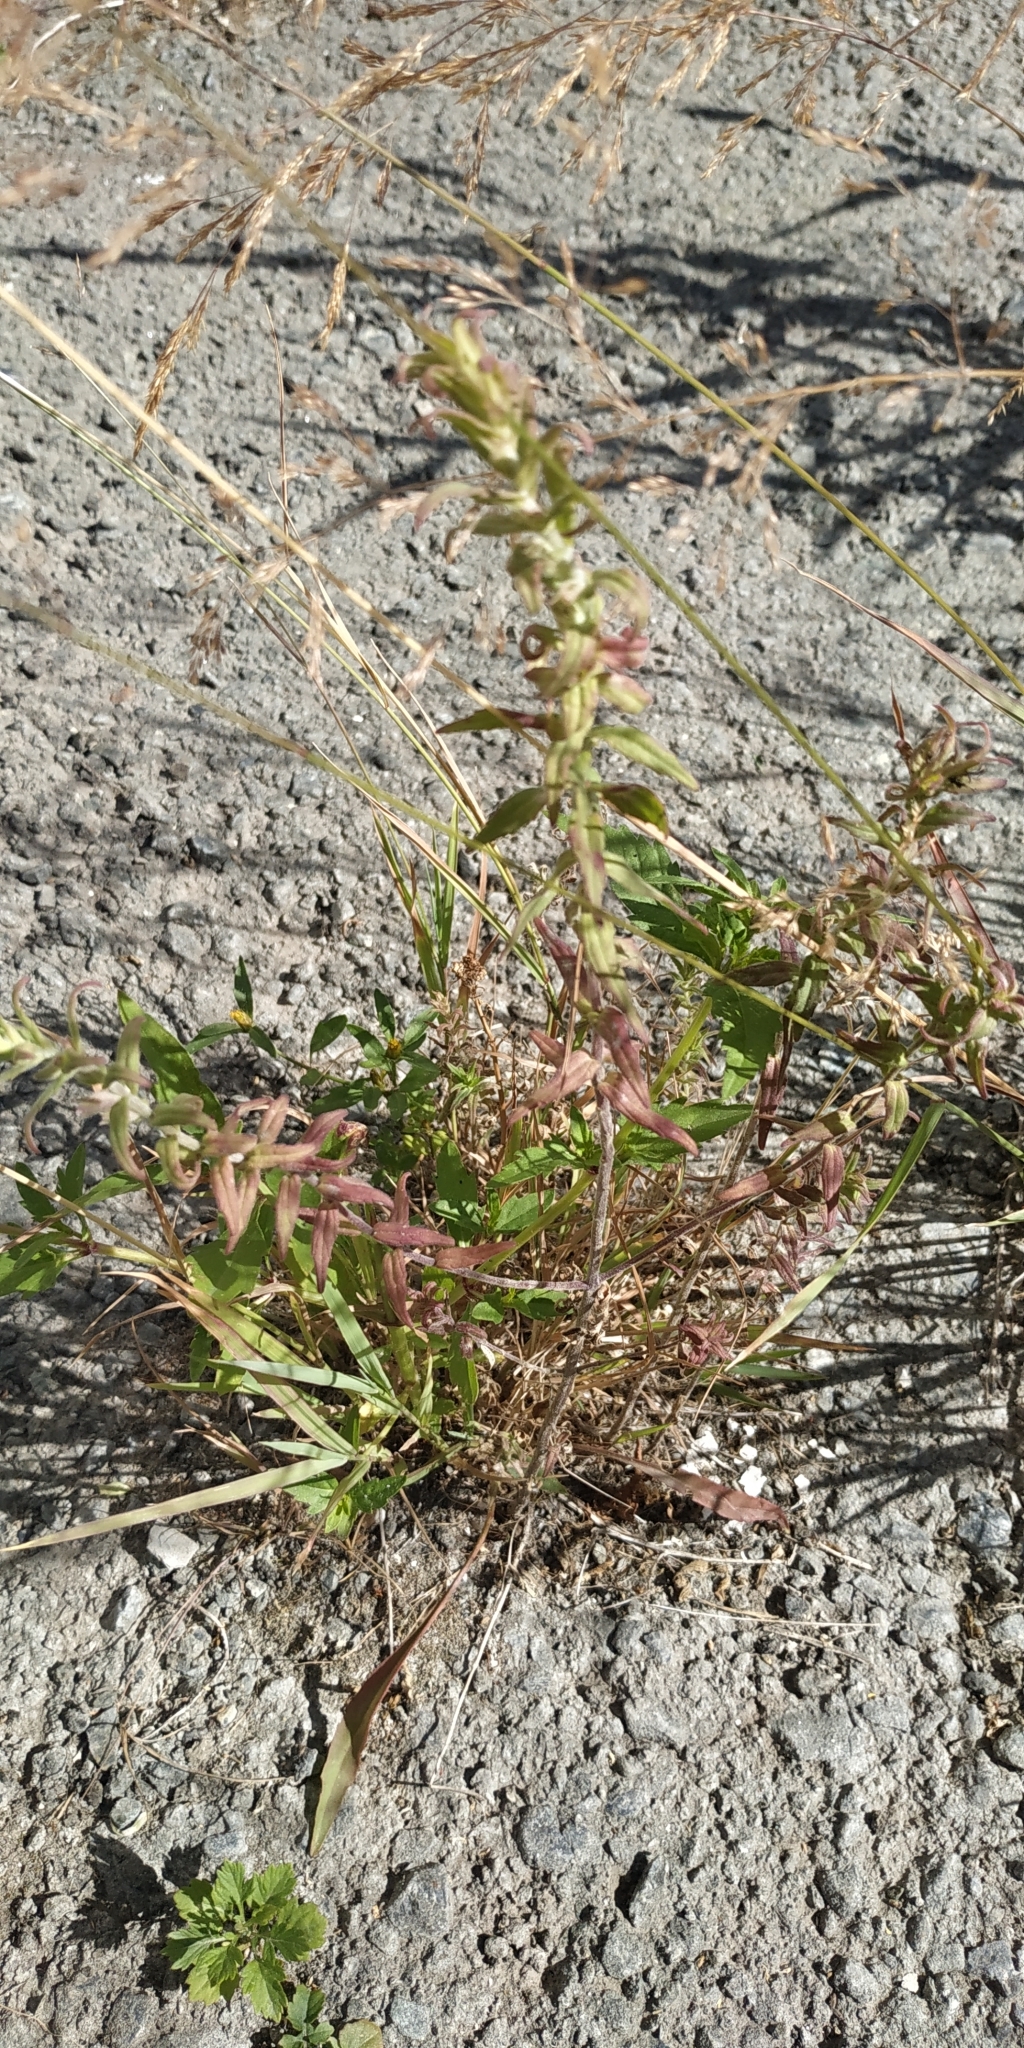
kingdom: Plantae
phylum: Tracheophyta
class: Magnoliopsida
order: Lamiales
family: Orobanchaceae
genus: Odontites
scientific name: Odontites vulgaris
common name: Broomrape
